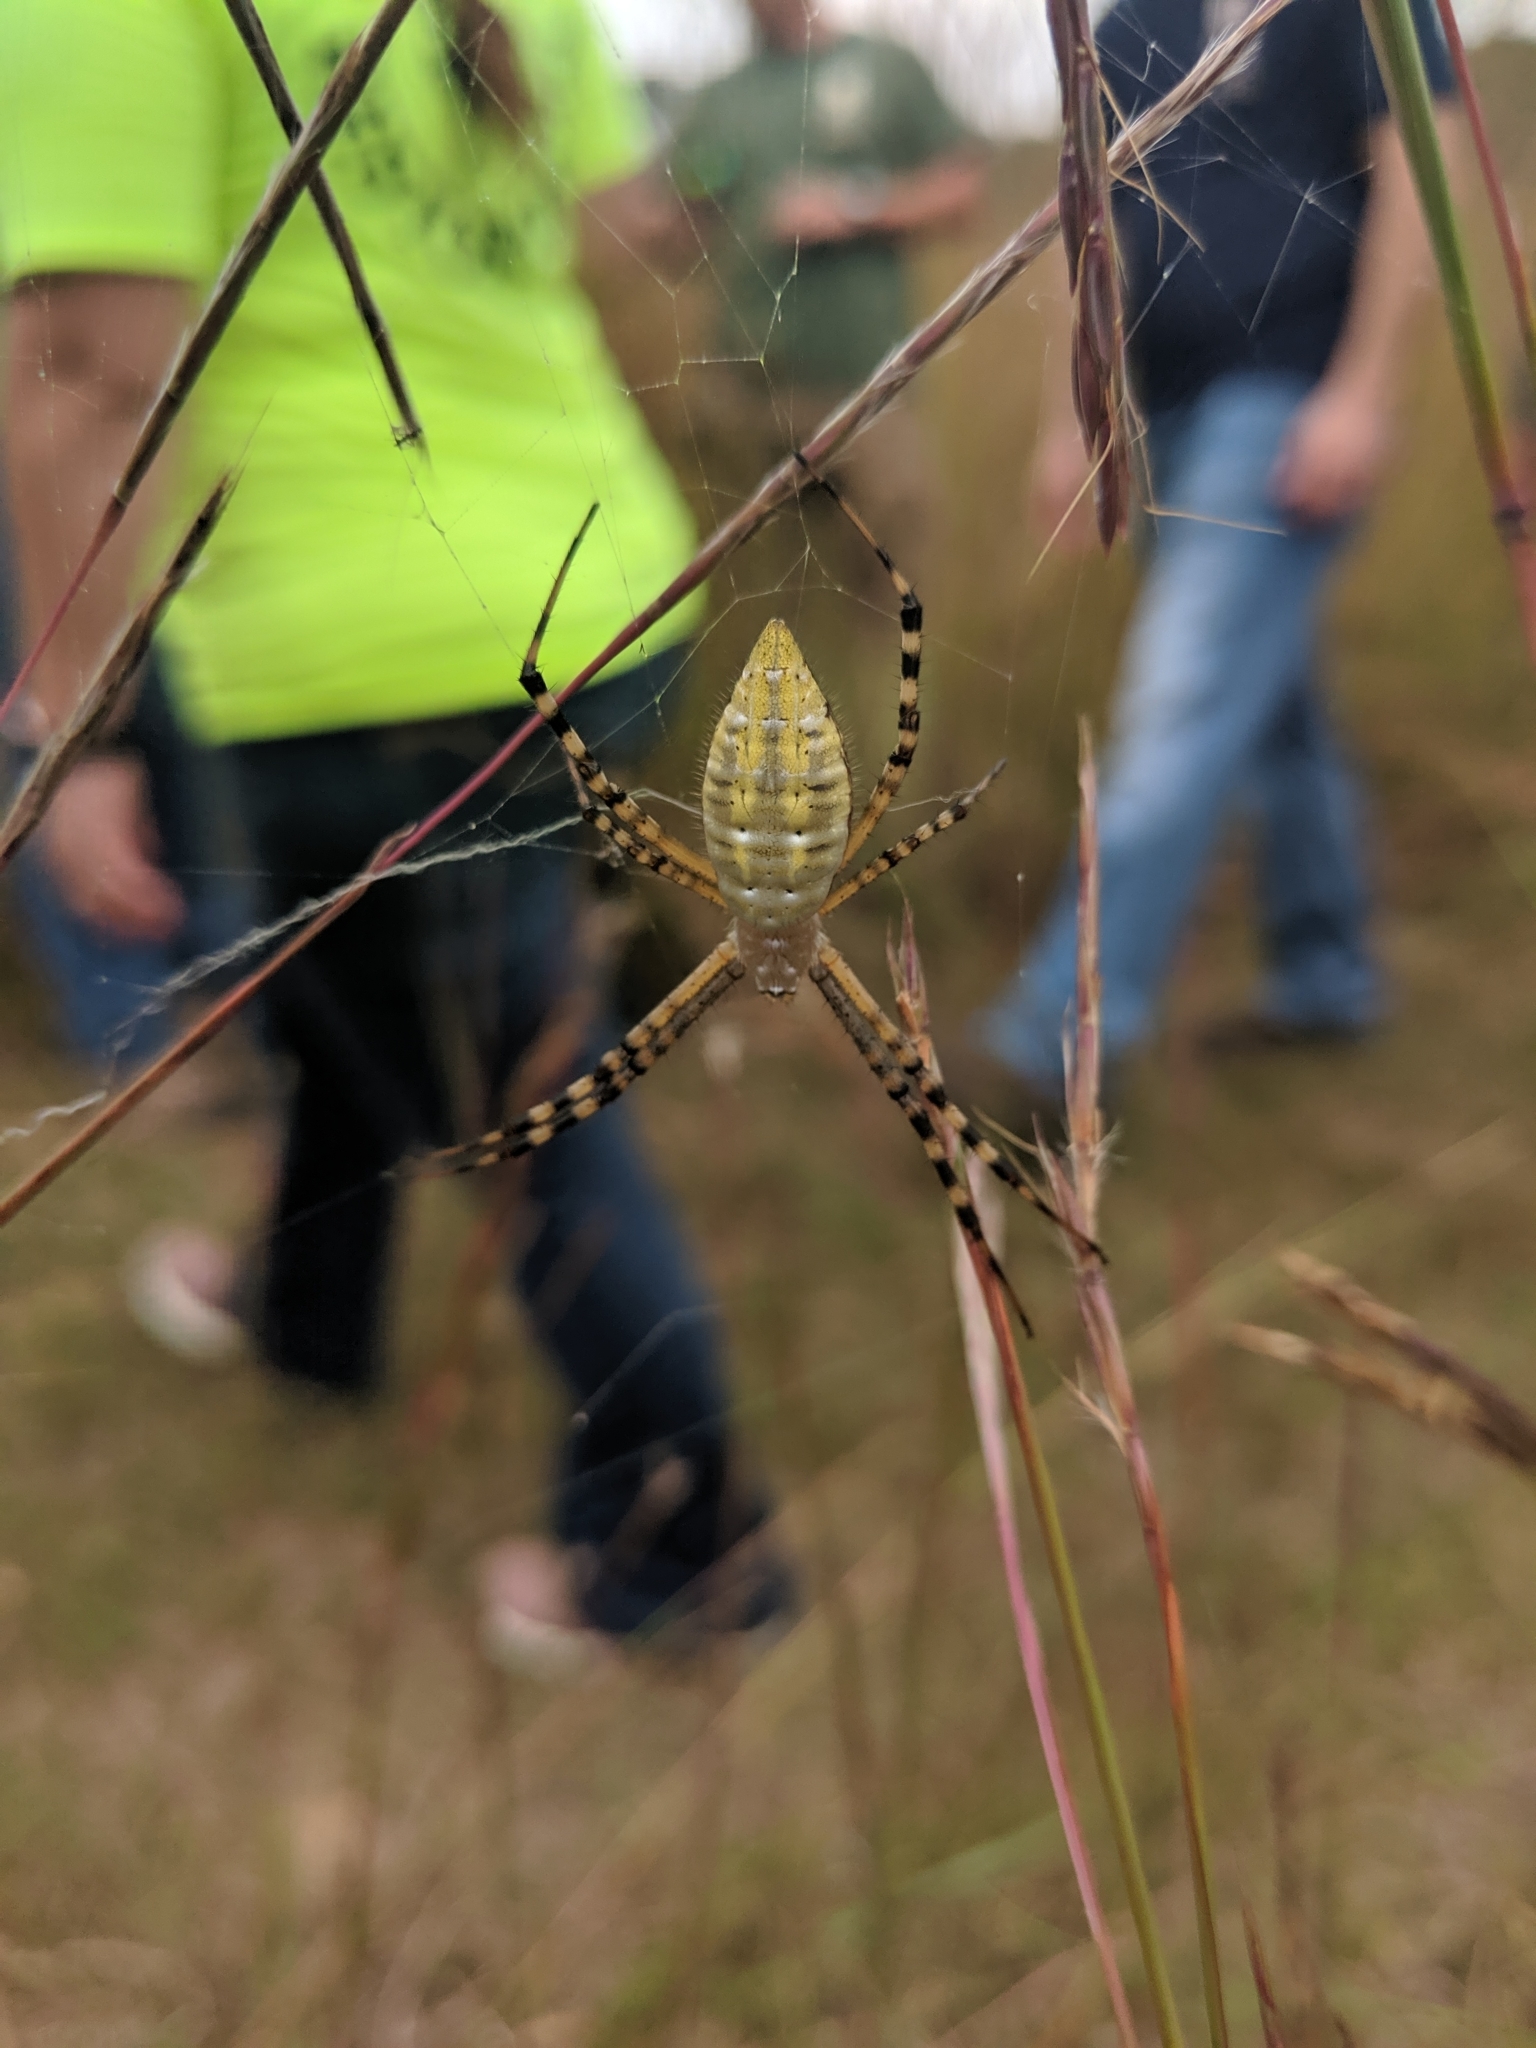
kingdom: Animalia
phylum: Arthropoda
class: Arachnida
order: Araneae
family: Araneidae
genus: Argiope
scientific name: Argiope trifasciata
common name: Banded garden spider
